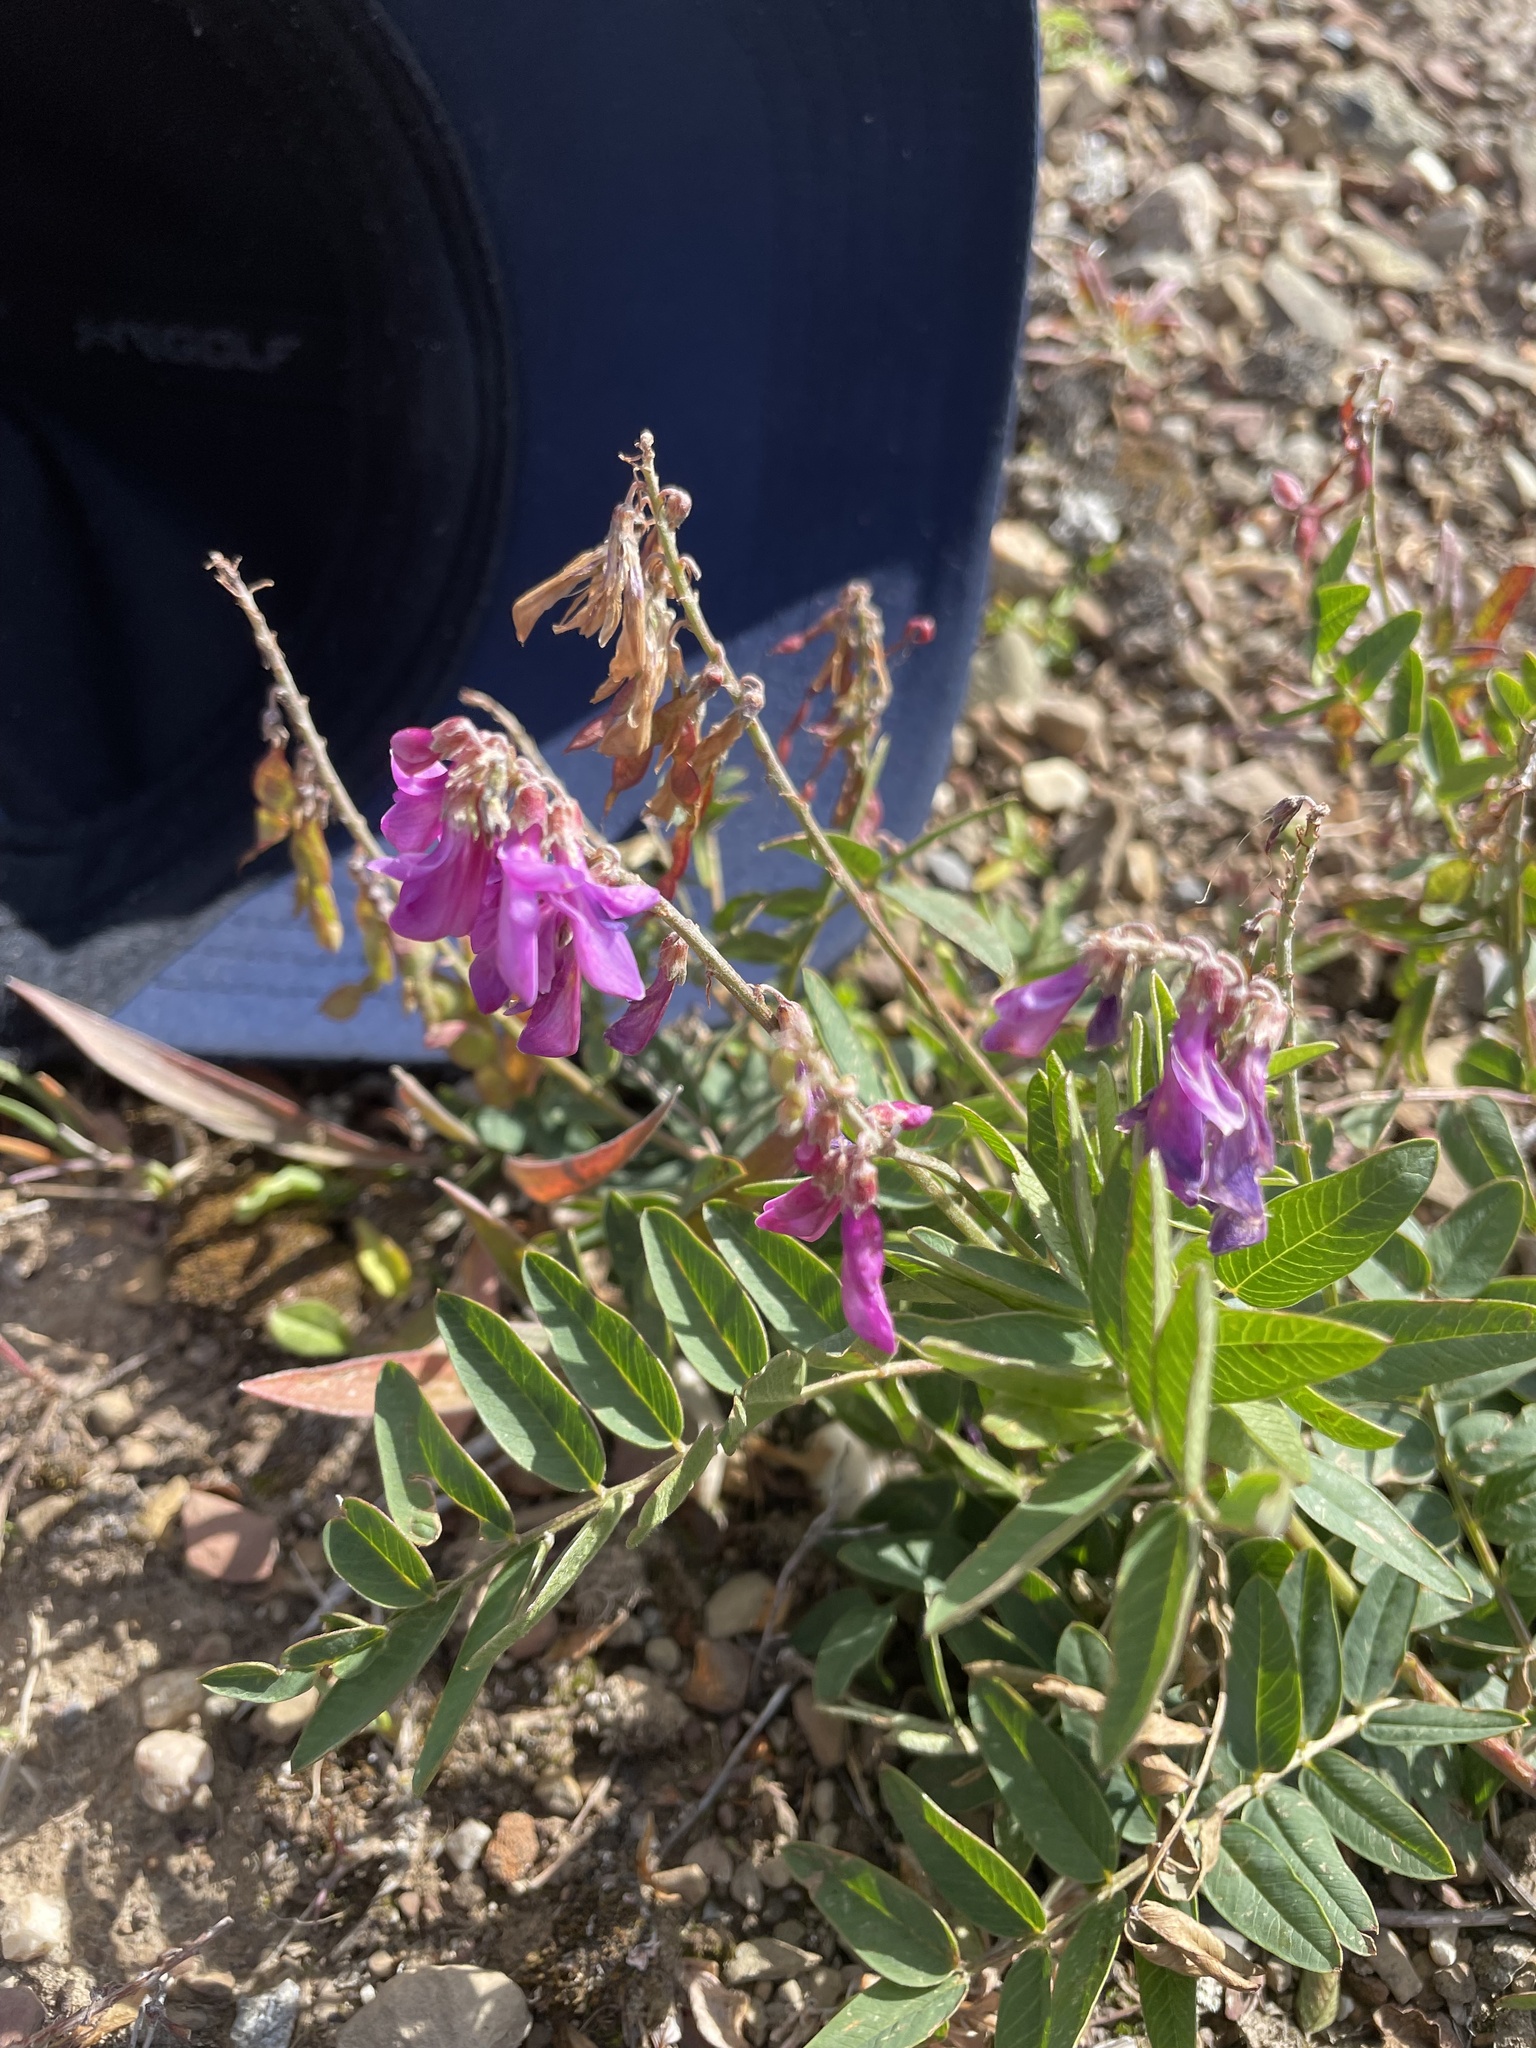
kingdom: Plantae
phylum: Tracheophyta
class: Magnoliopsida
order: Fabales
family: Fabaceae
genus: Hedysarum
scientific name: Hedysarum alpinum
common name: Alpine sweet-vetch
